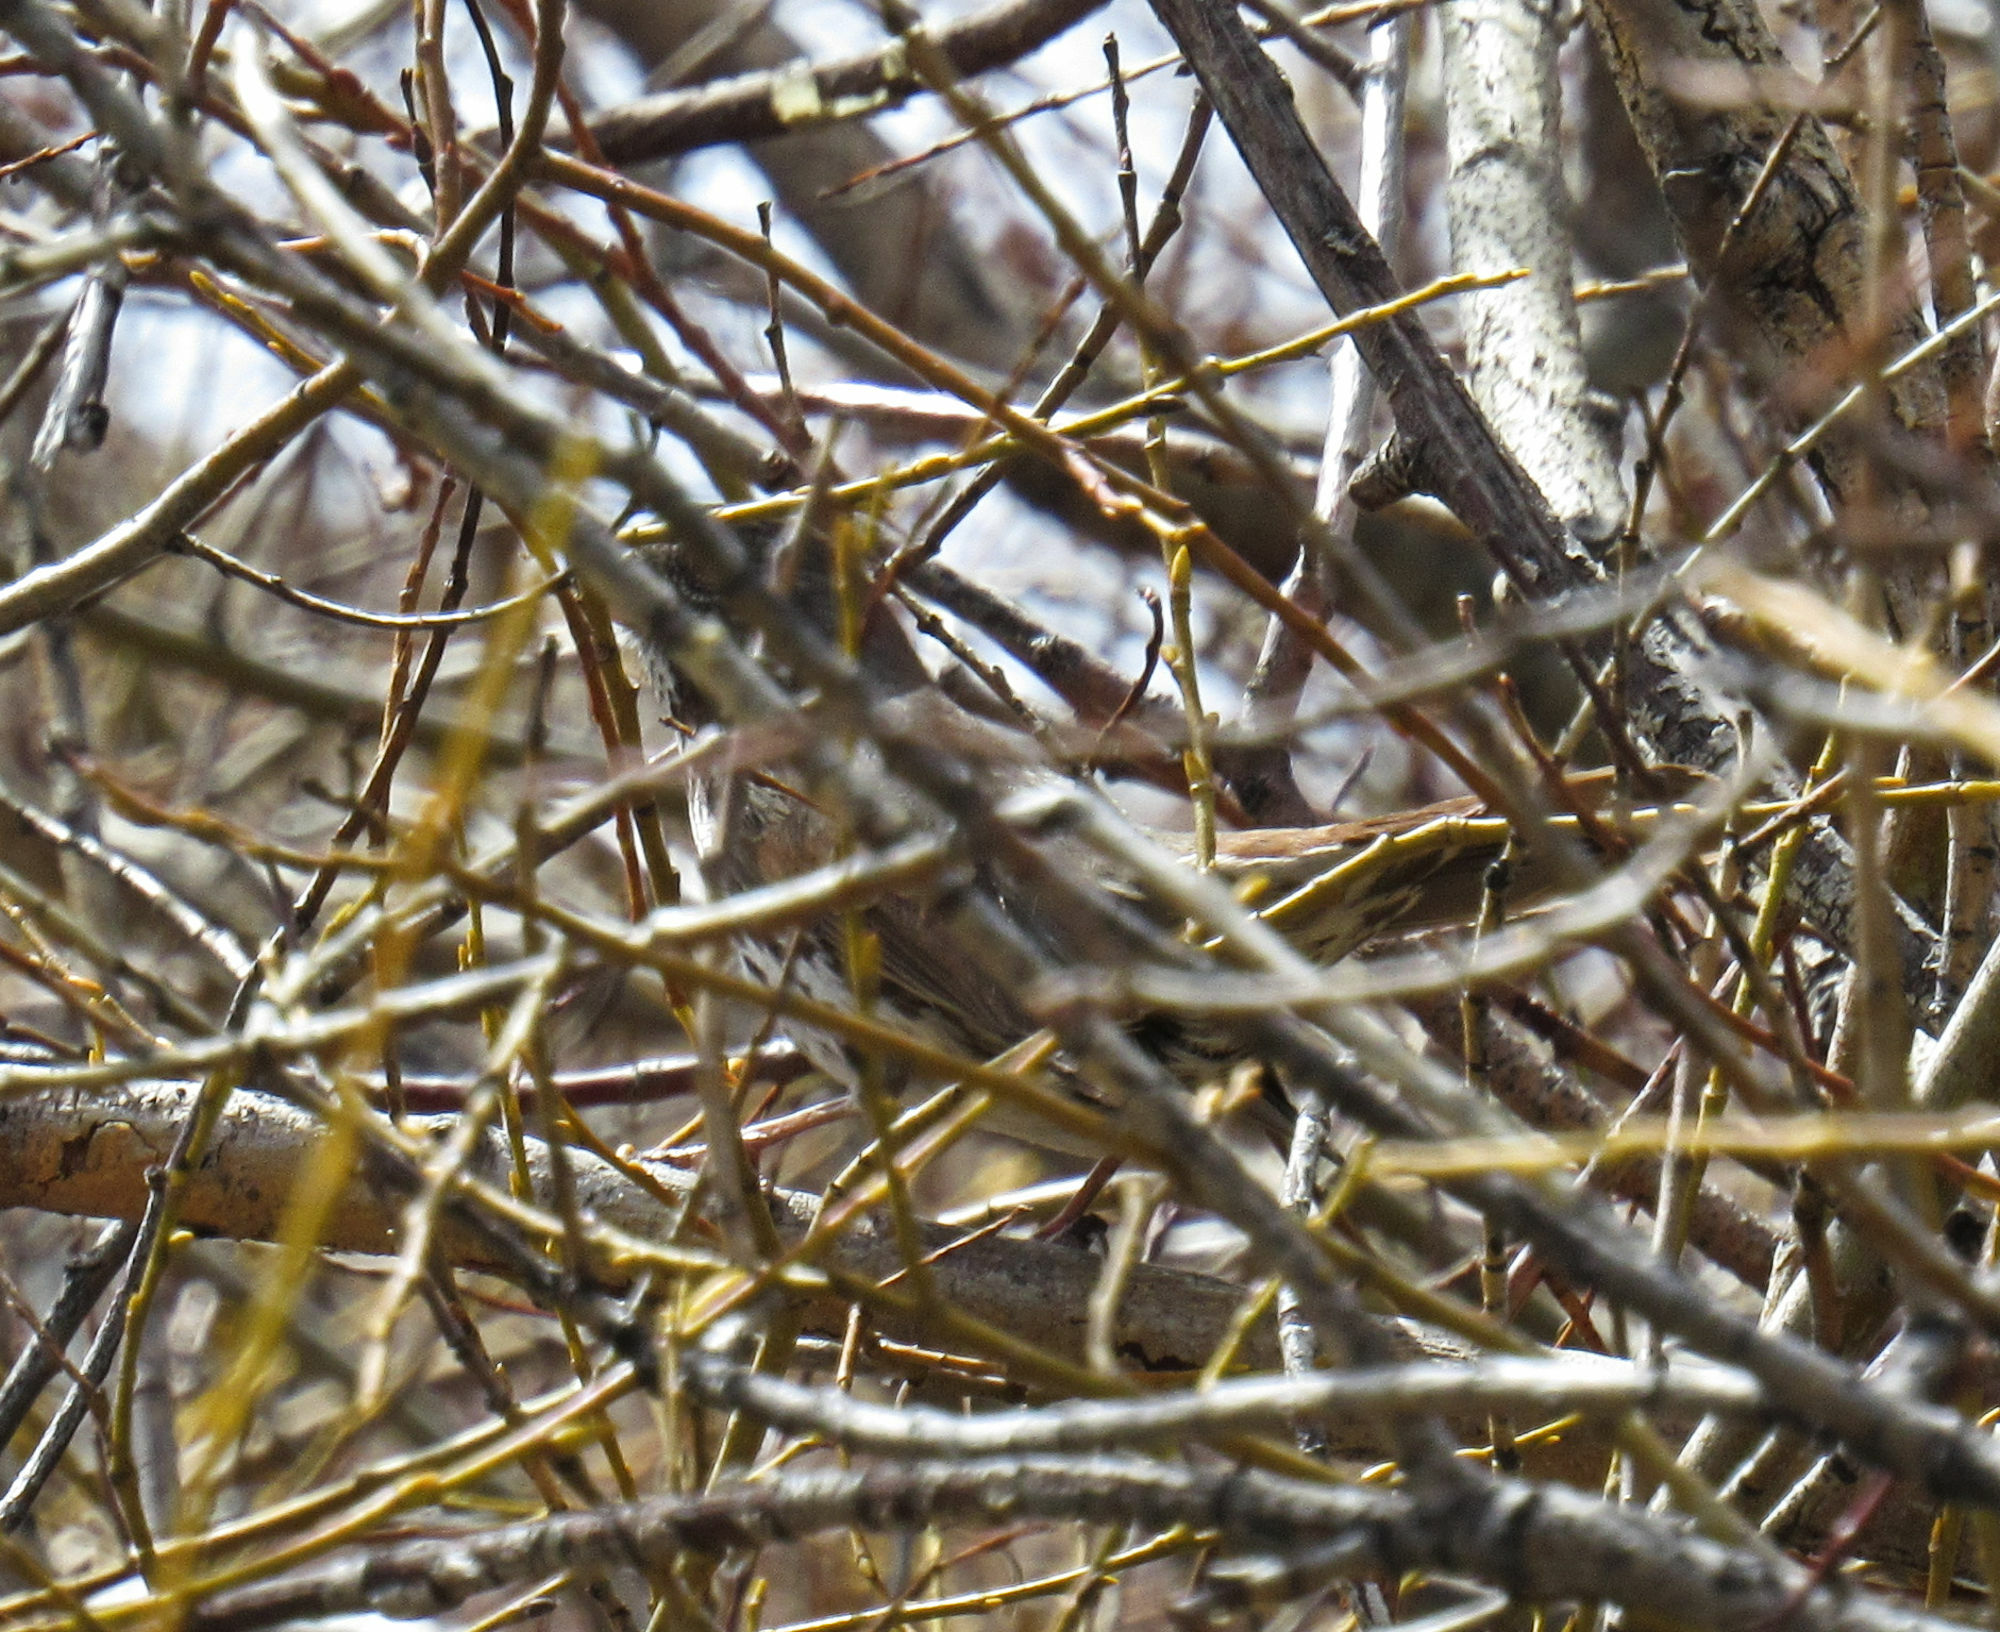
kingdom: Animalia
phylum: Chordata
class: Aves
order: Passeriformes
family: Passerellidae
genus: Passerella
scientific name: Passerella iliaca
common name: Fox sparrow
